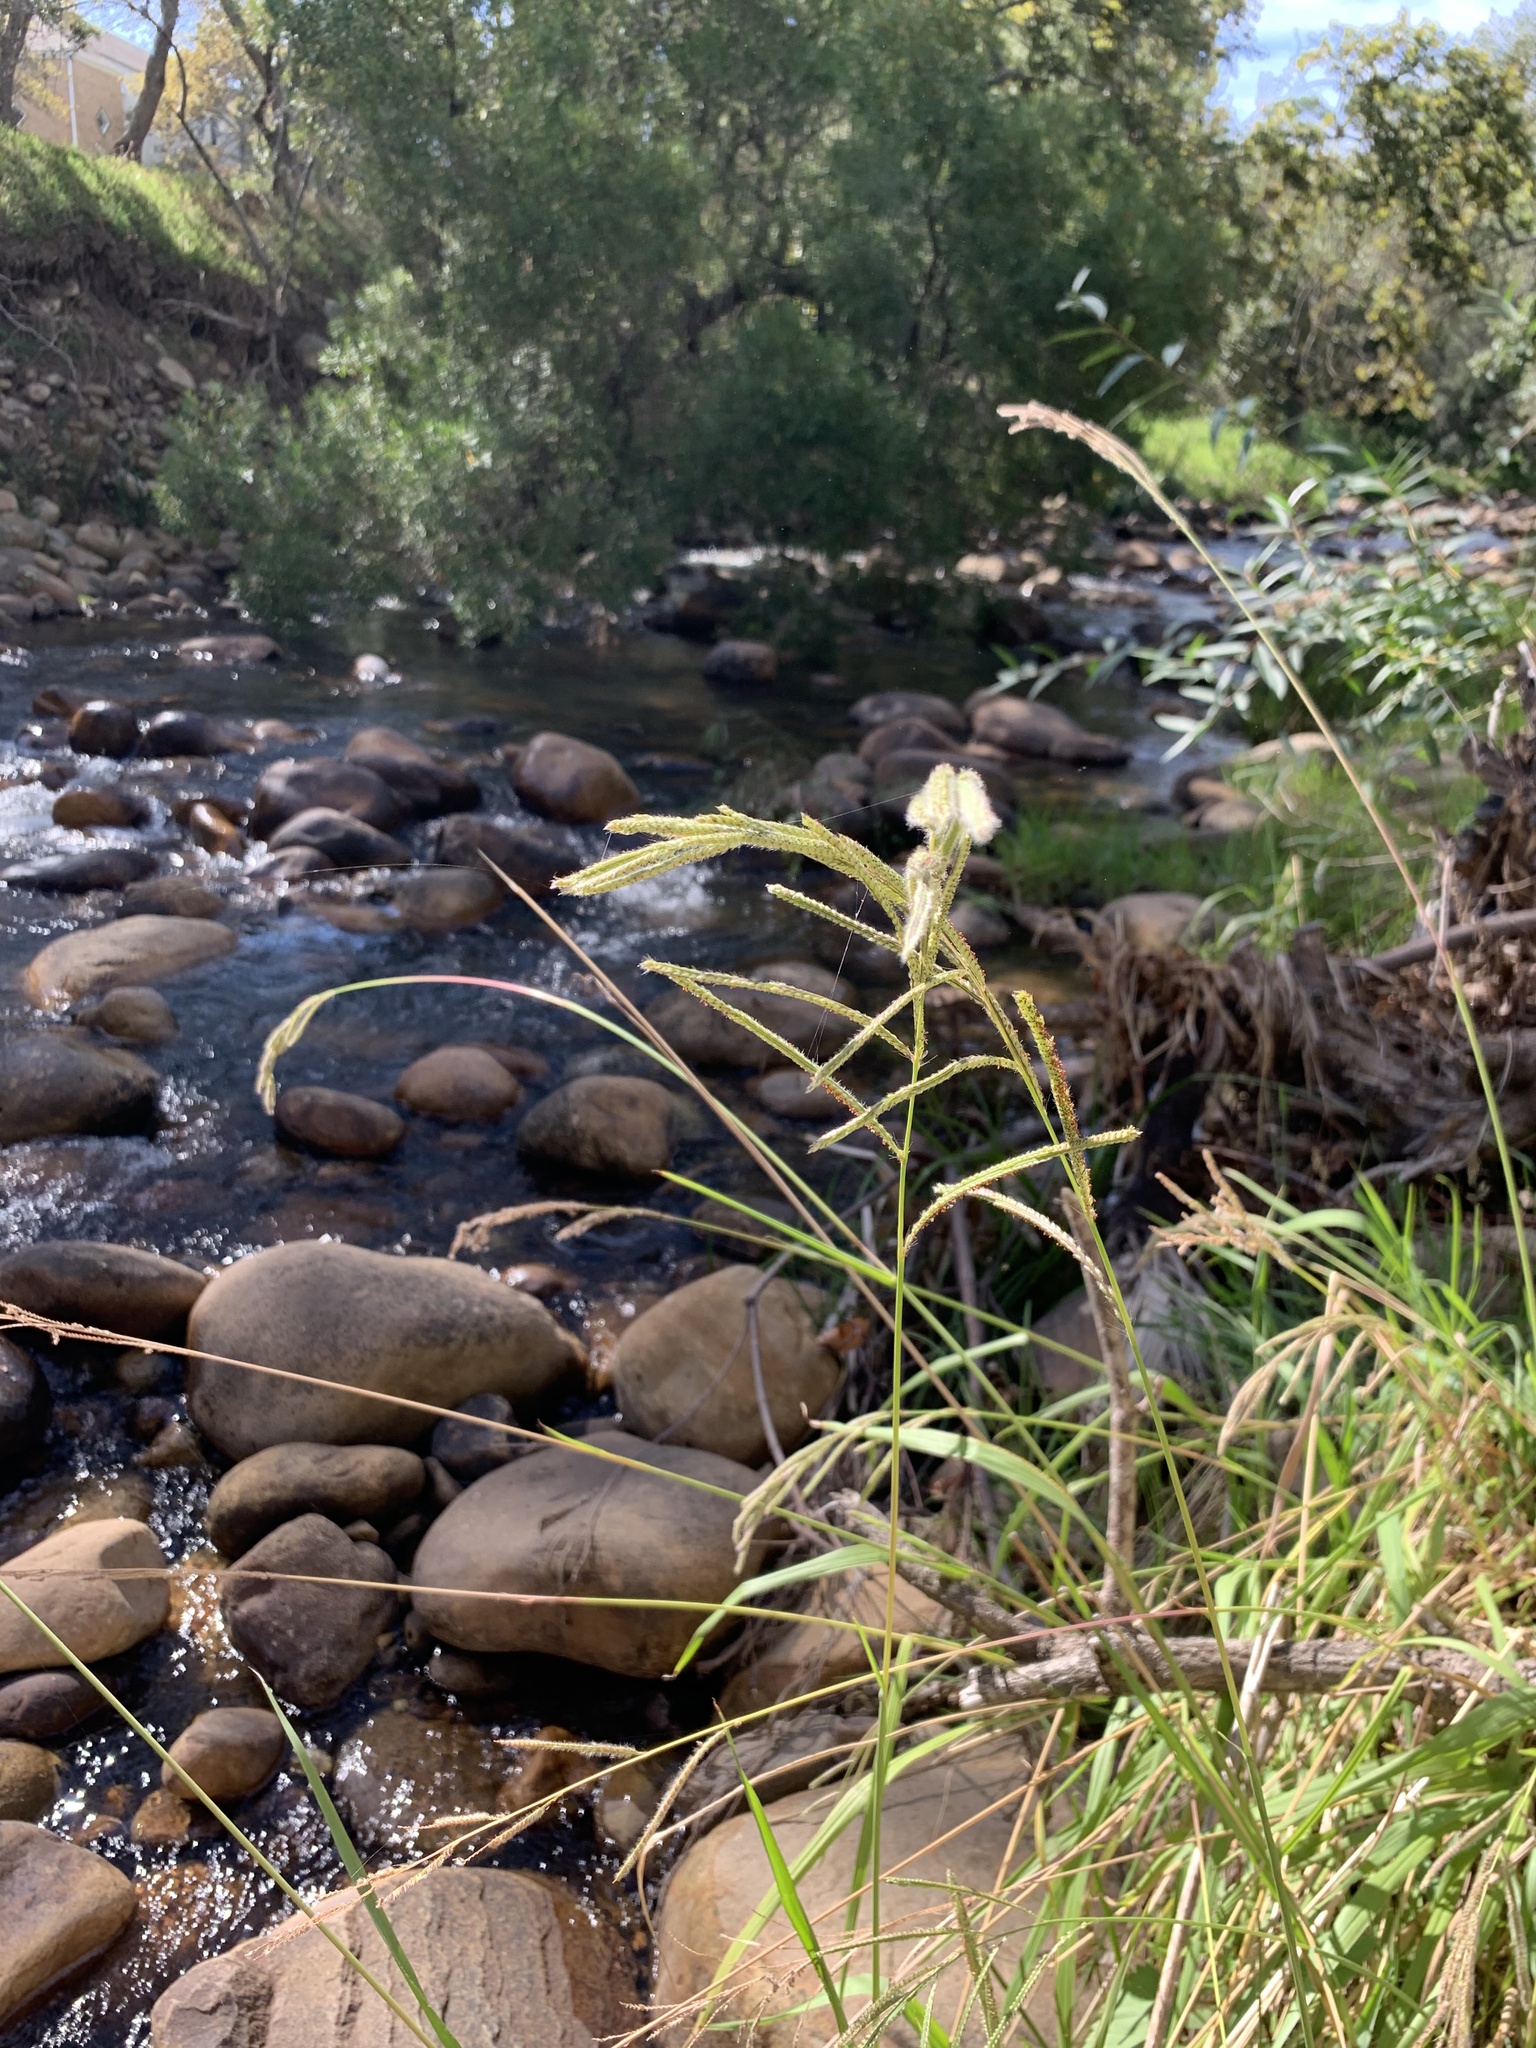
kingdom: Plantae
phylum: Tracheophyta
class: Liliopsida
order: Poales
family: Poaceae
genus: Paspalum
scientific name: Paspalum urvillei
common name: Vasey's grass
